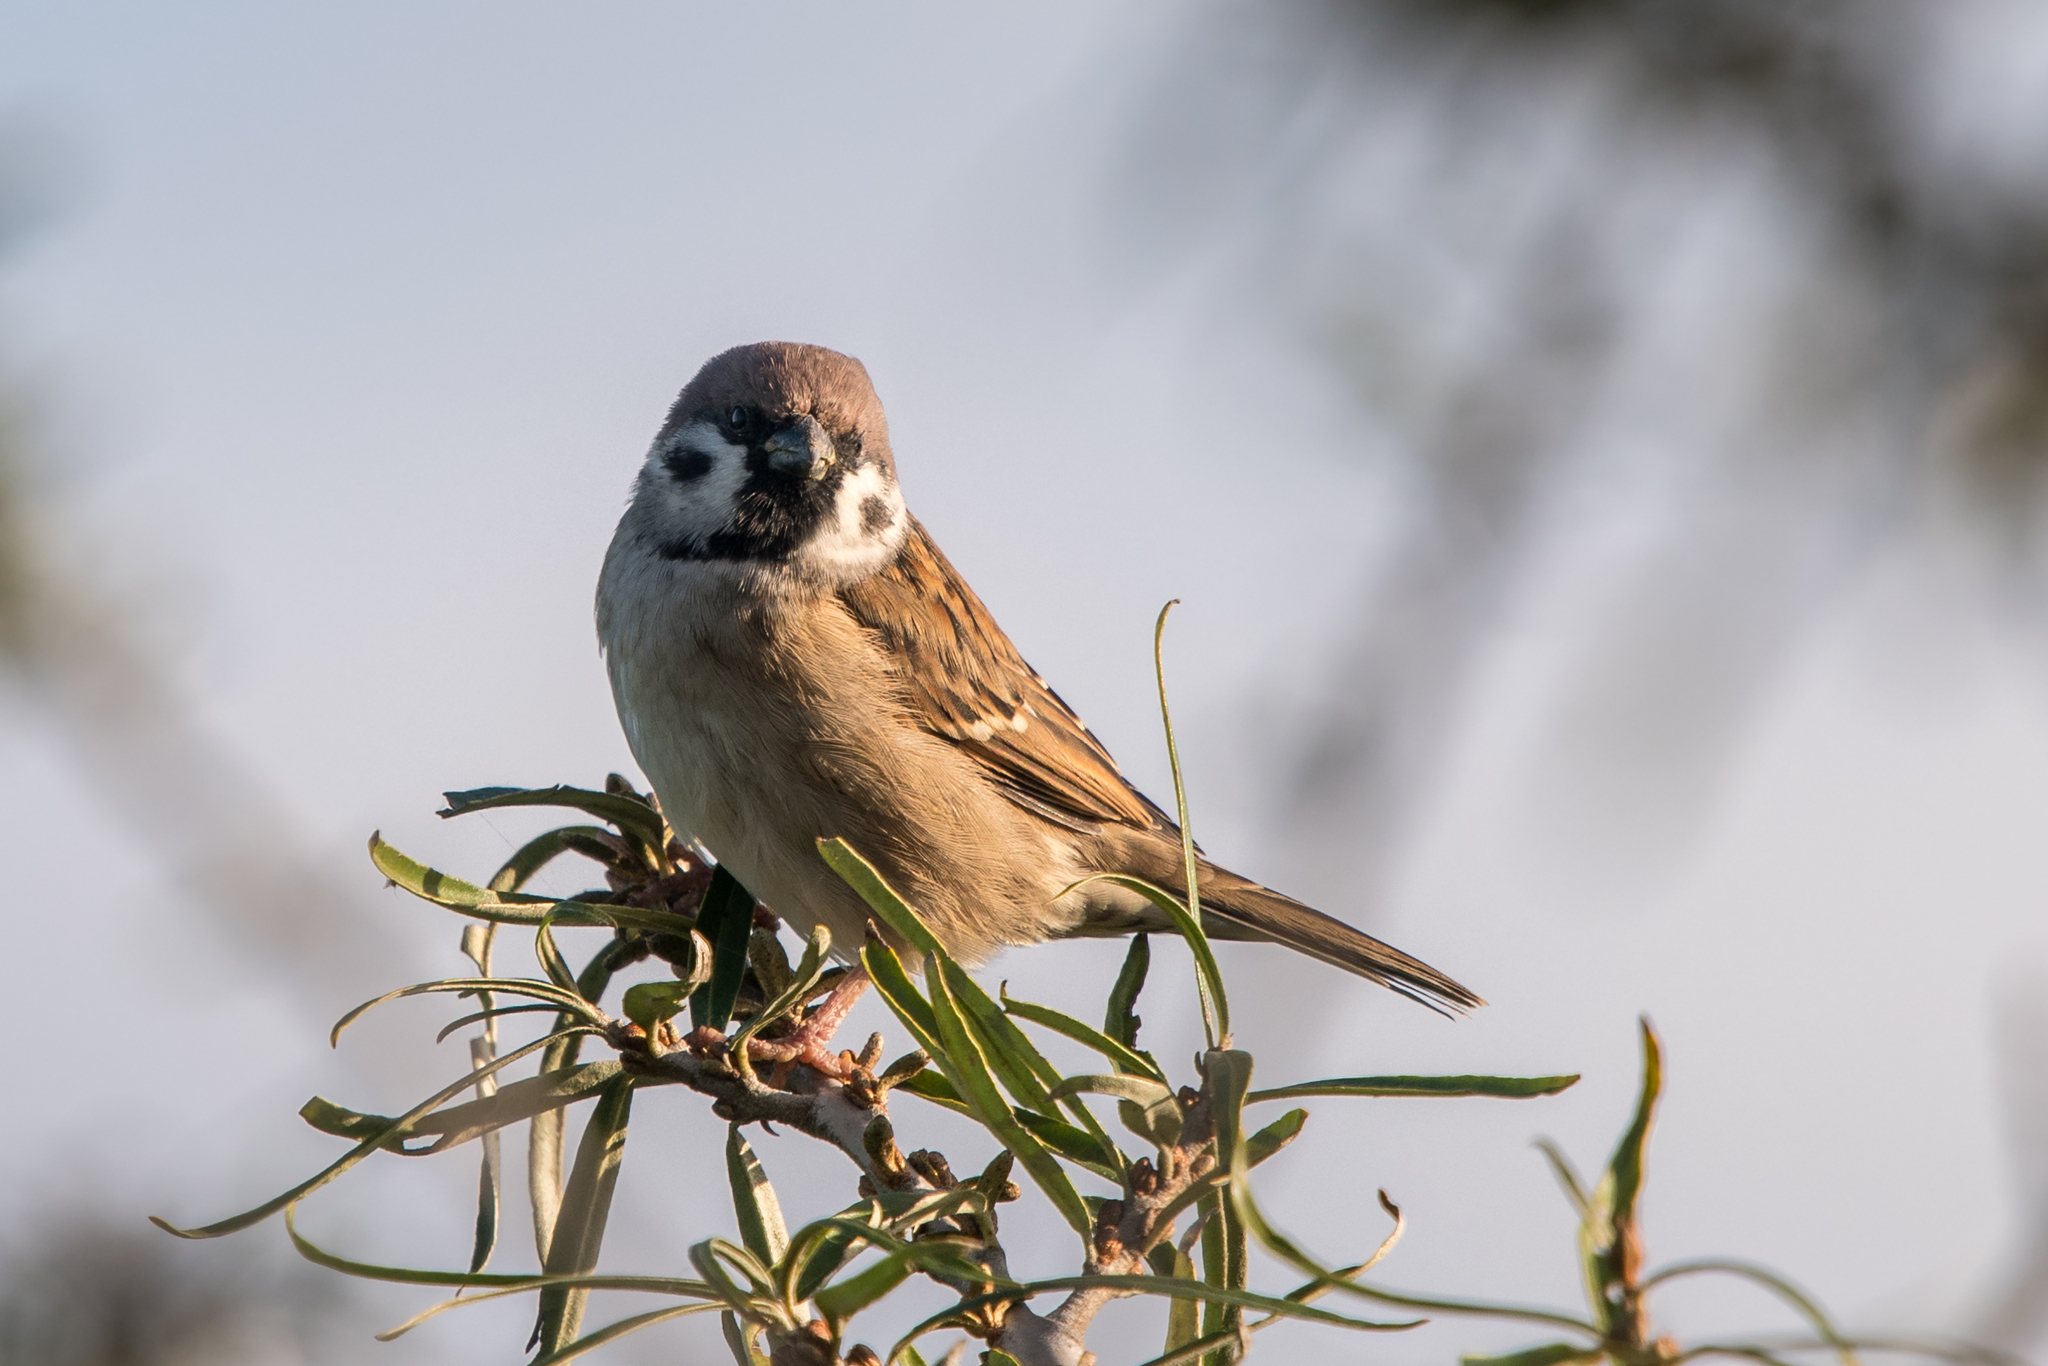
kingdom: Animalia
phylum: Chordata
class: Aves
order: Passeriformes
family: Passeridae
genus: Passer
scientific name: Passer montanus
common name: Eurasian tree sparrow
